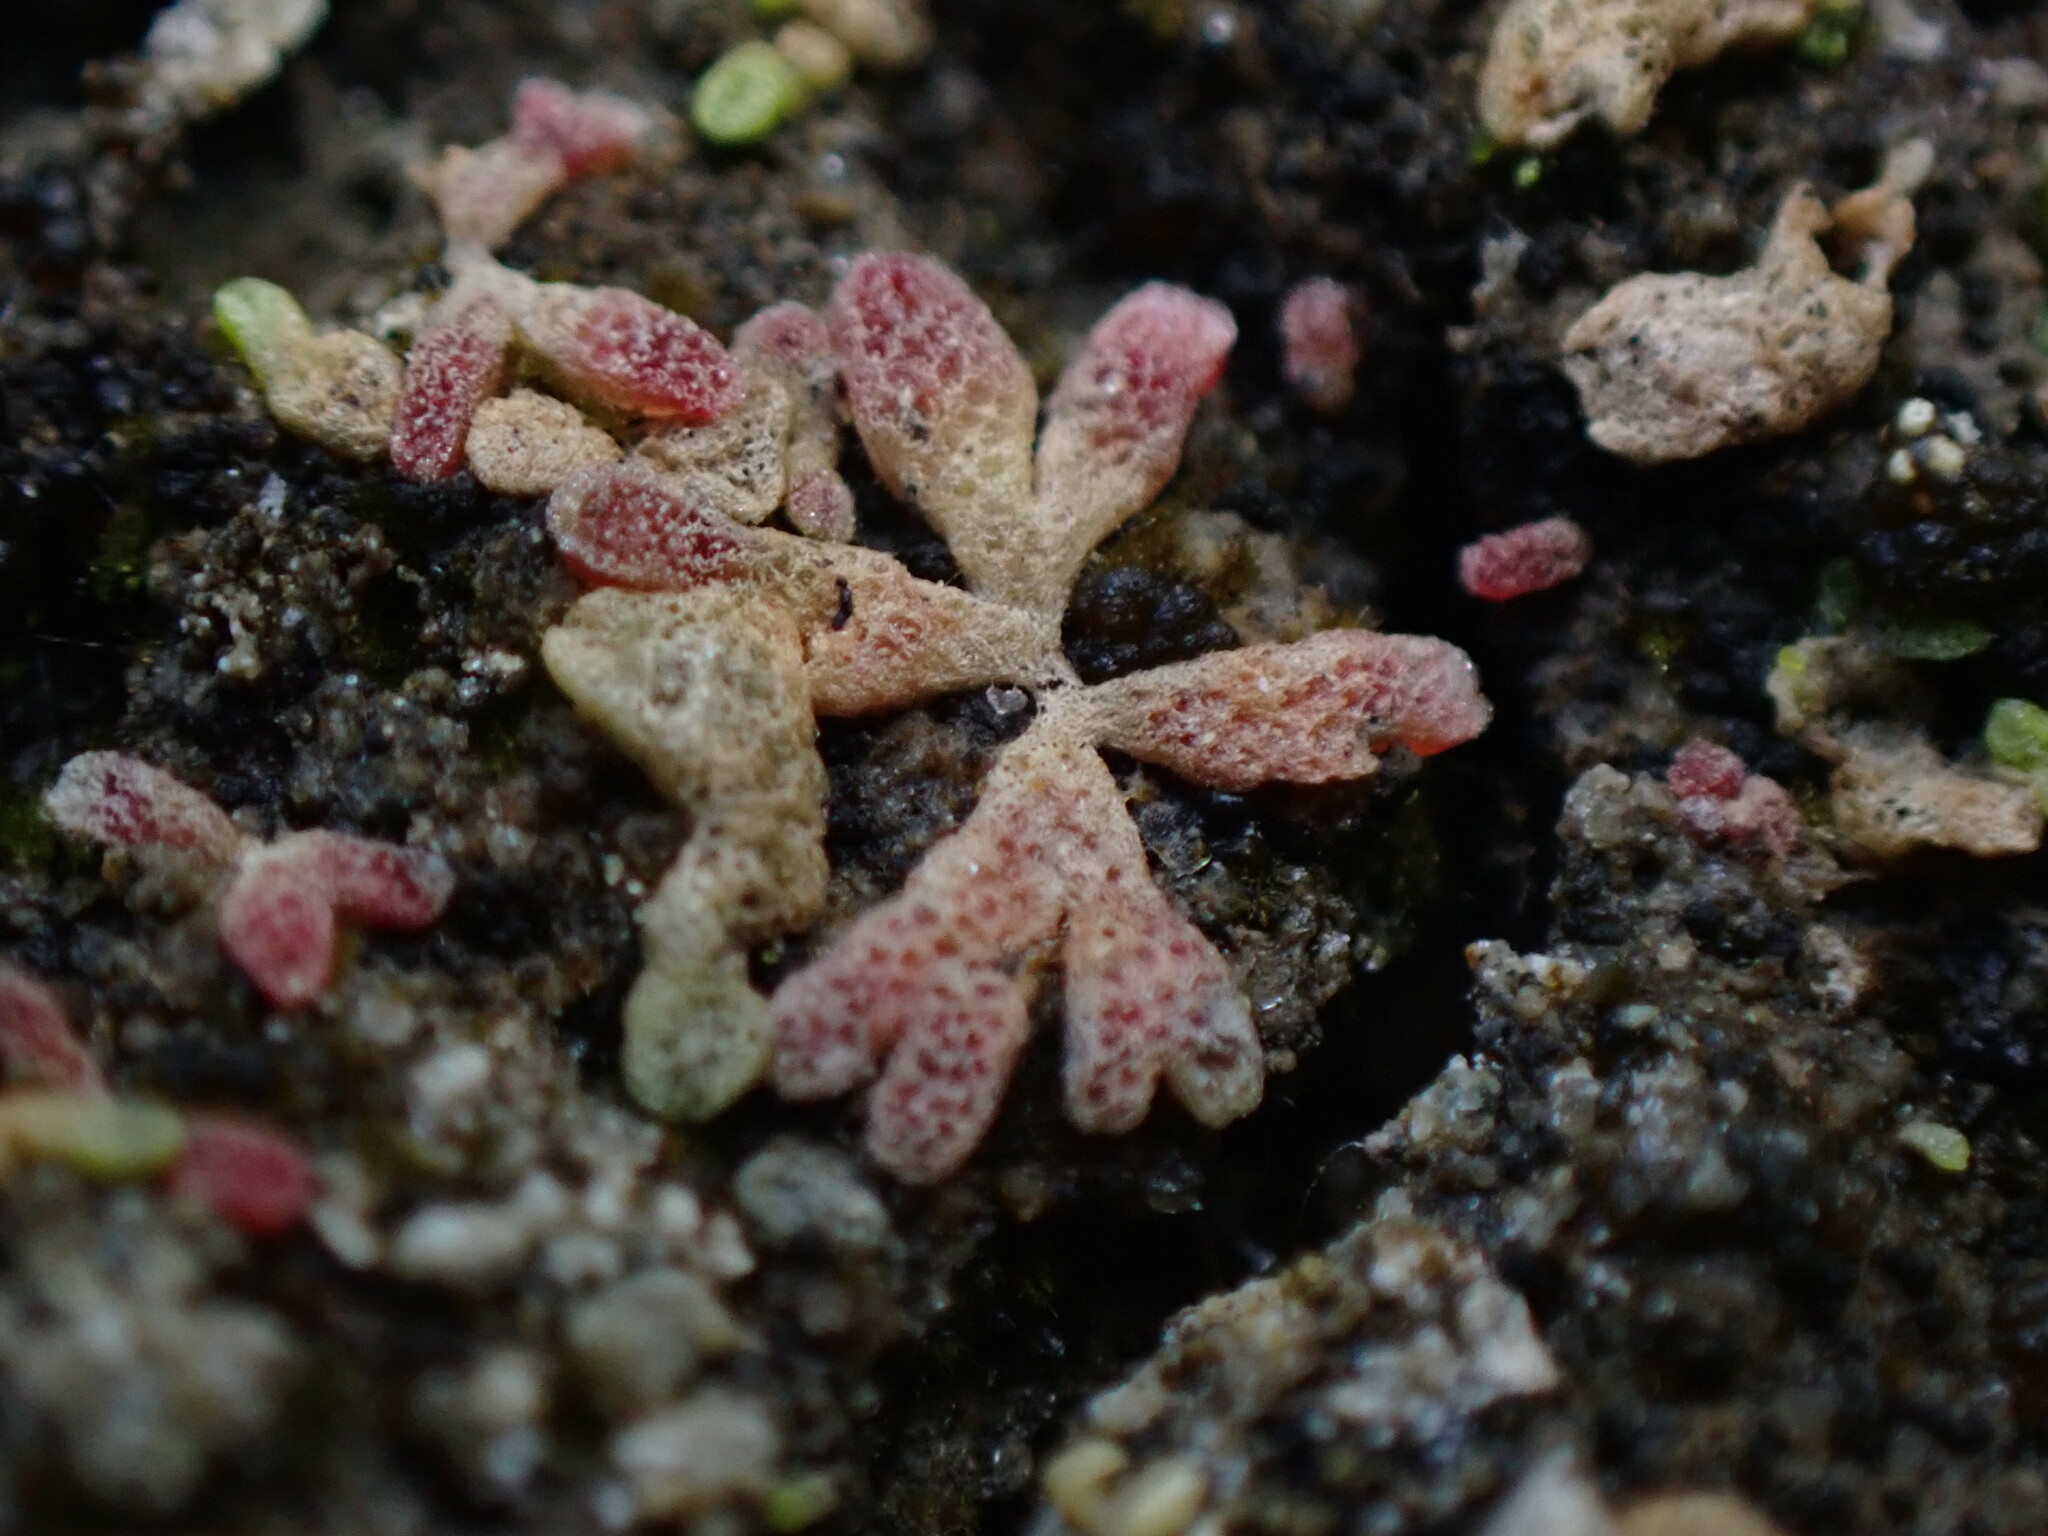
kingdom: Plantae
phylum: Marchantiophyta
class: Marchantiopsida
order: Marchantiales
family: Ricciaceae
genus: Riccia
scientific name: Riccia frostii
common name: Frost s crystalwort
